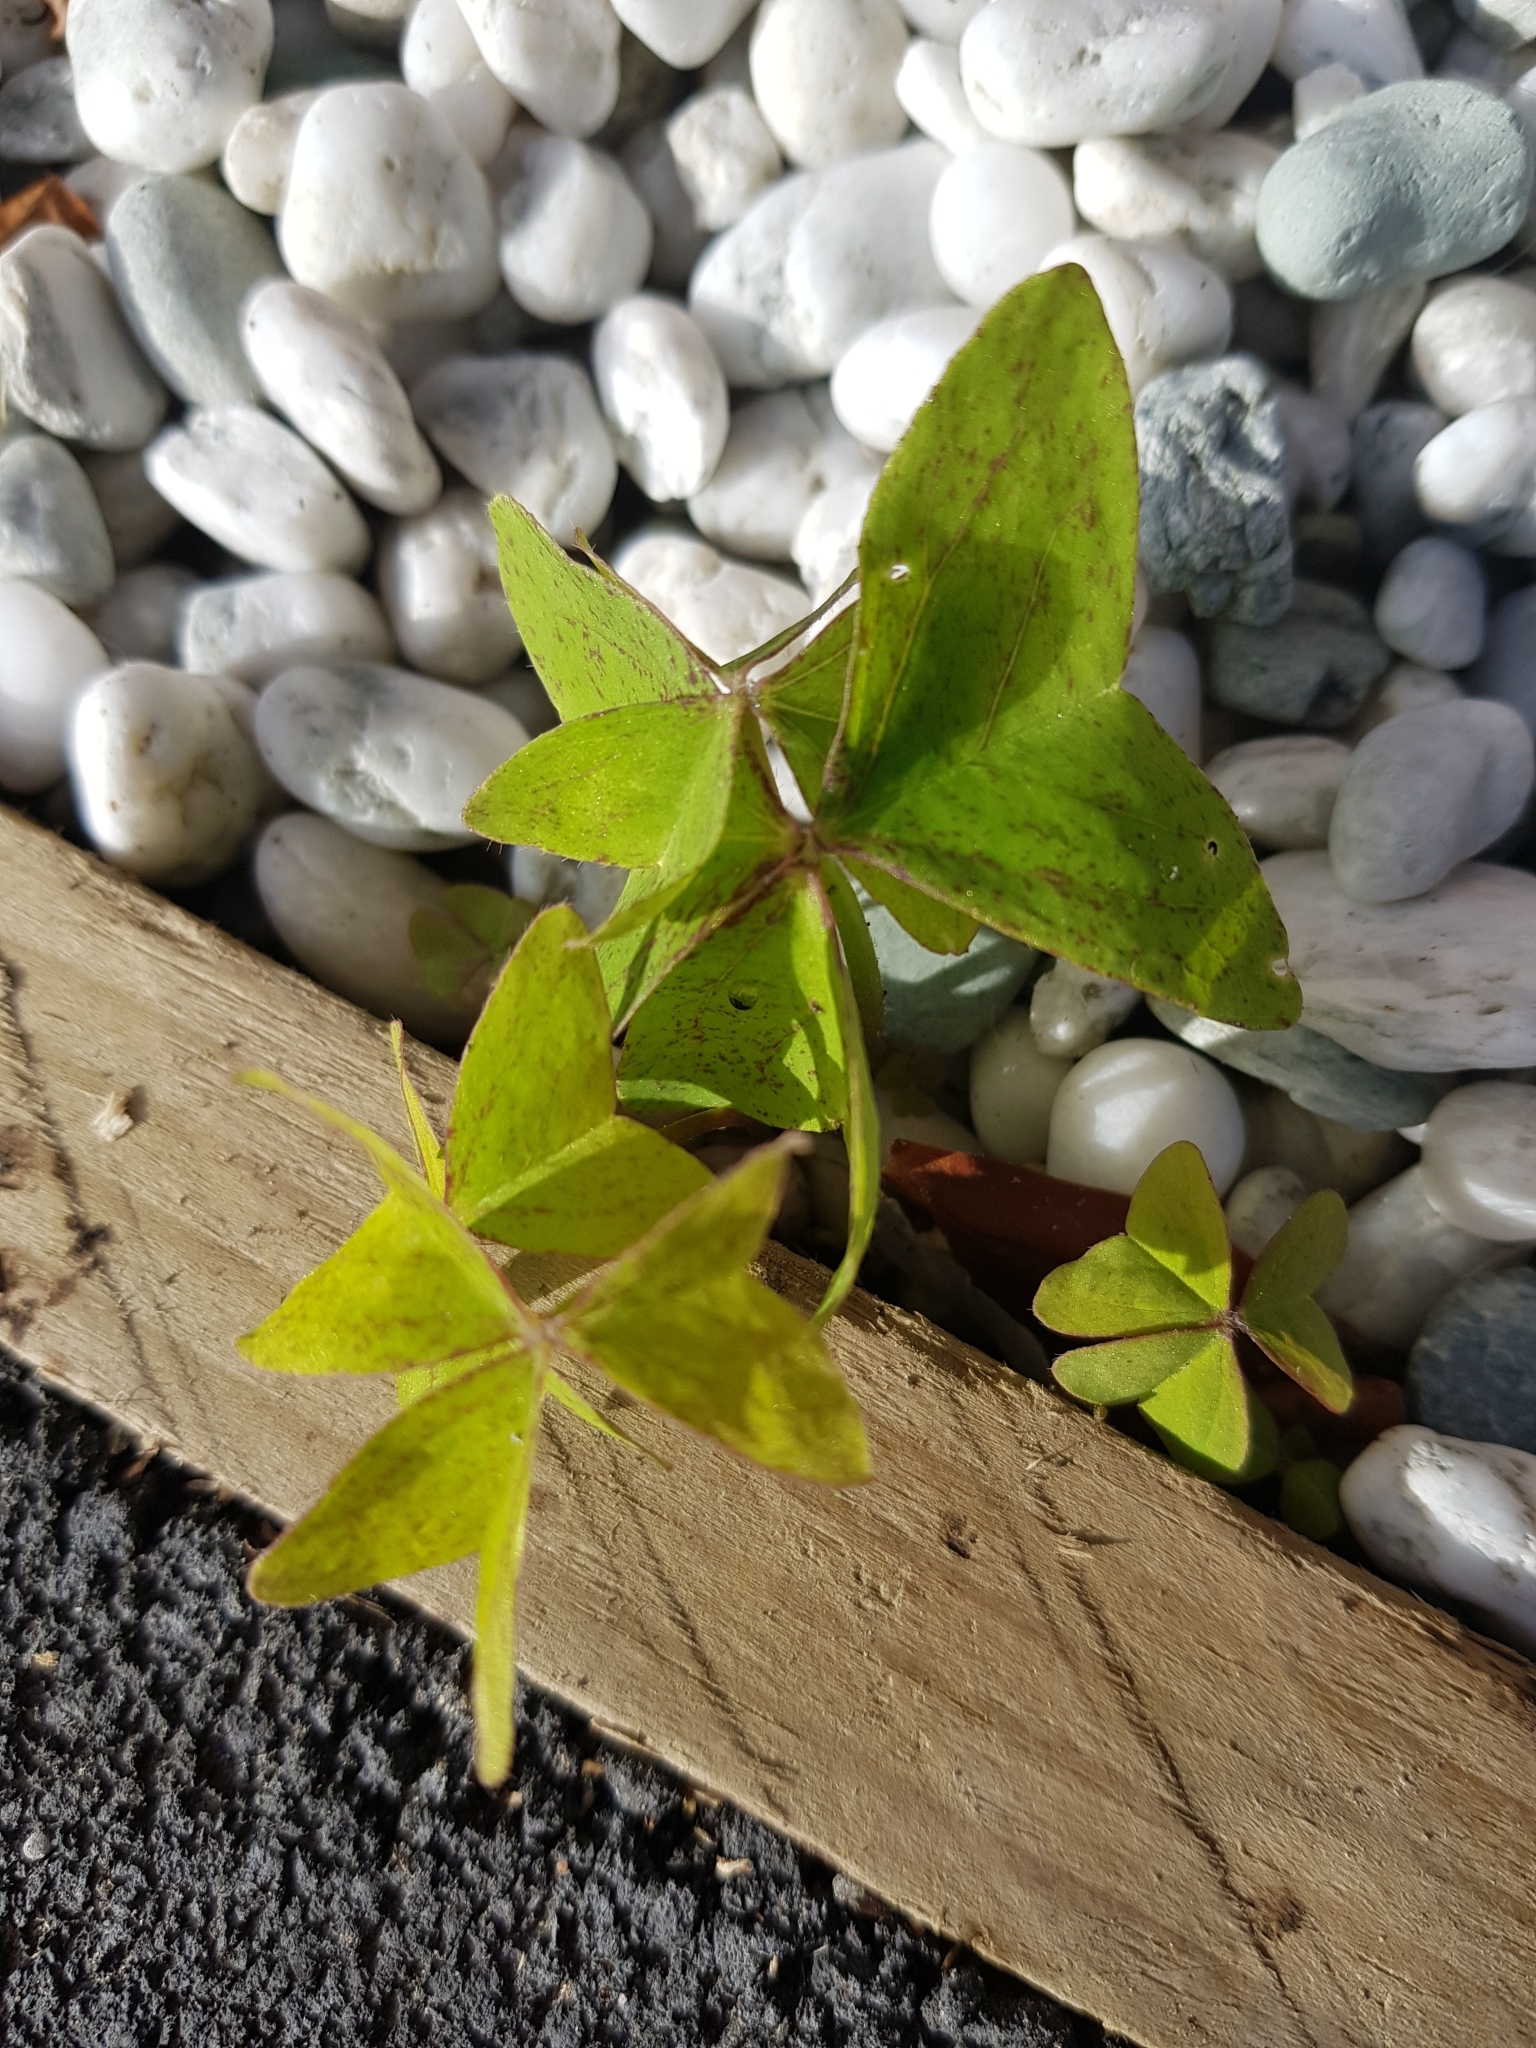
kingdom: Plantae
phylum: Tracheophyta
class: Magnoliopsida
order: Oxalidales
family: Oxalidaceae
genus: Oxalis
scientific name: Oxalis latifolia
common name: Garden pink-sorrel
